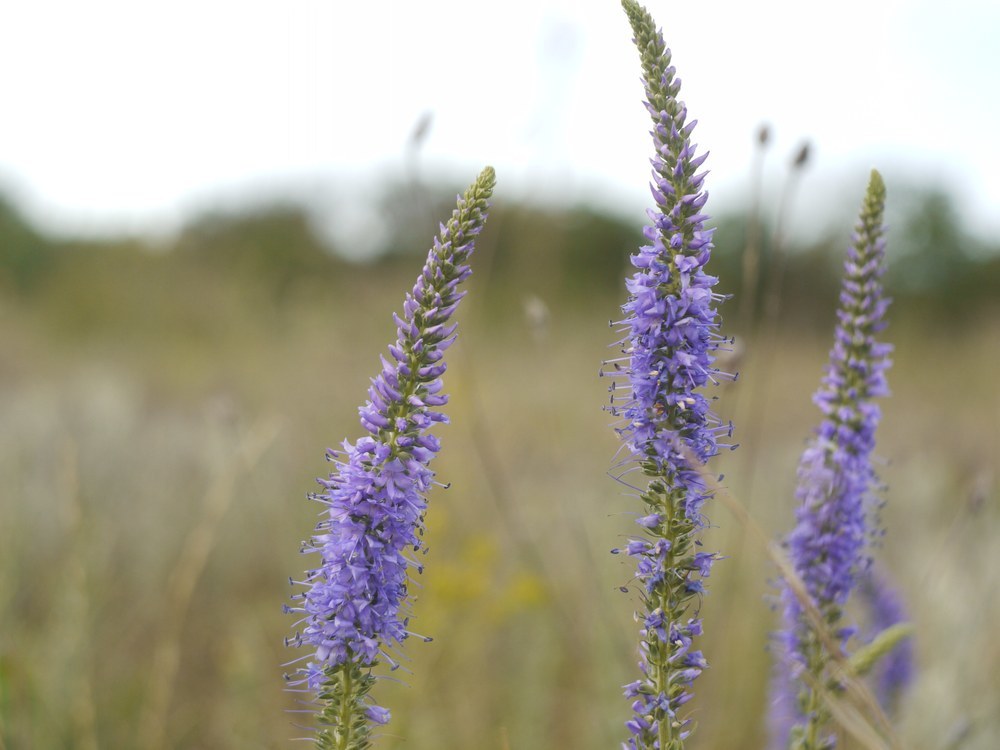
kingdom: Plantae
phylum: Tracheophyta
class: Magnoliopsida
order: Lamiales
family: Plantaginaceae
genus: Veronica
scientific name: Veronica spicata
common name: Spiked speedwell
